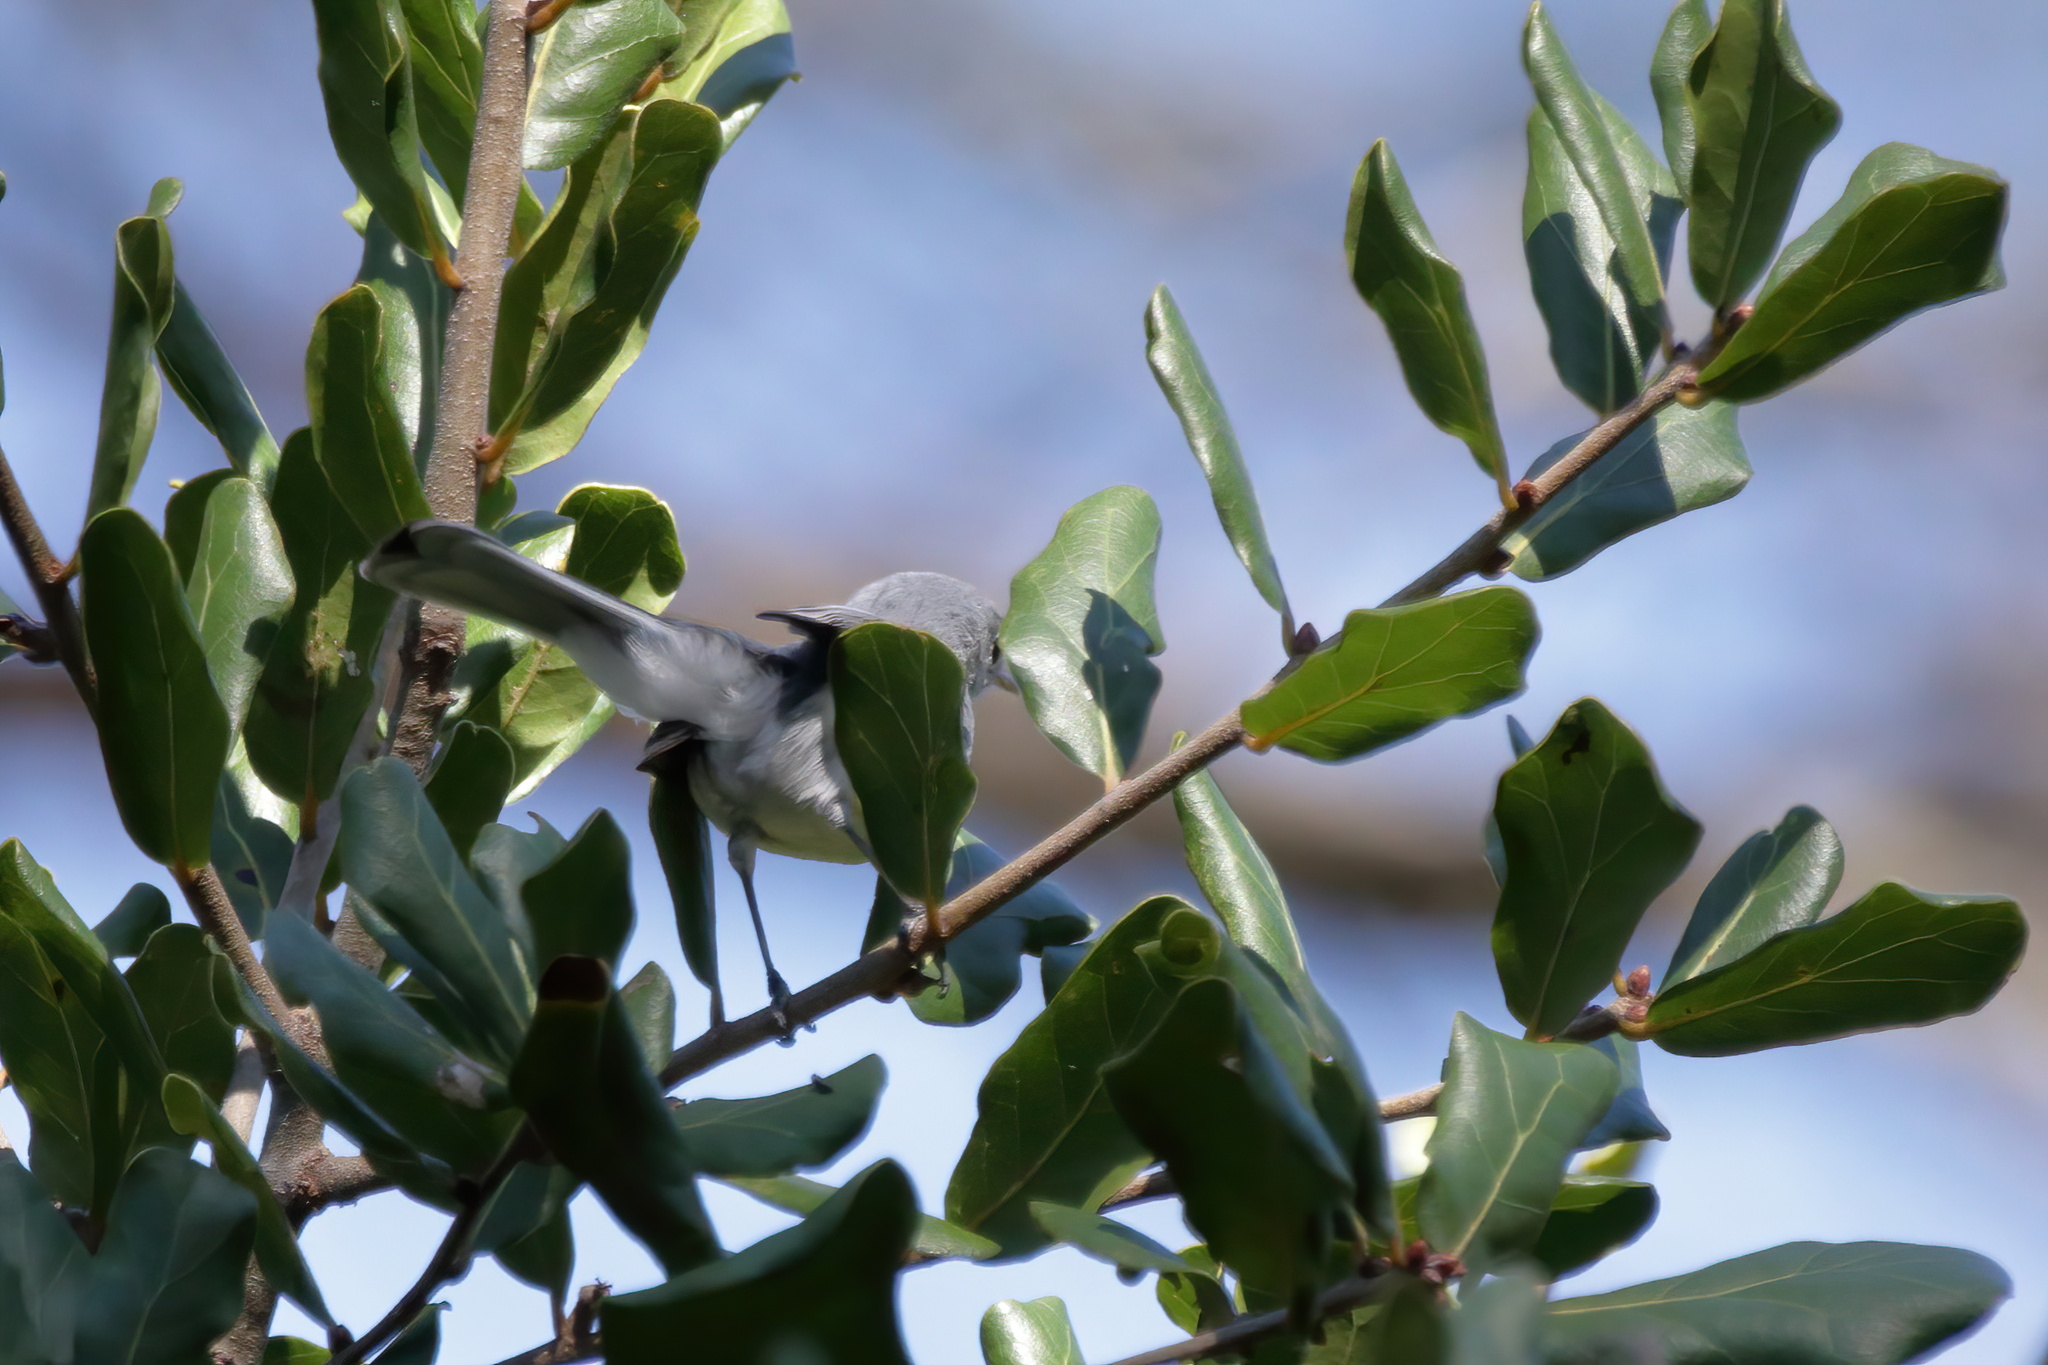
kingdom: Animalia
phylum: Chordata
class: Aves
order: Passeriformes
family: Polioptilidae
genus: Polioptila
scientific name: Polioptila caerulea
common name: Blue-gray gnatcatcher
